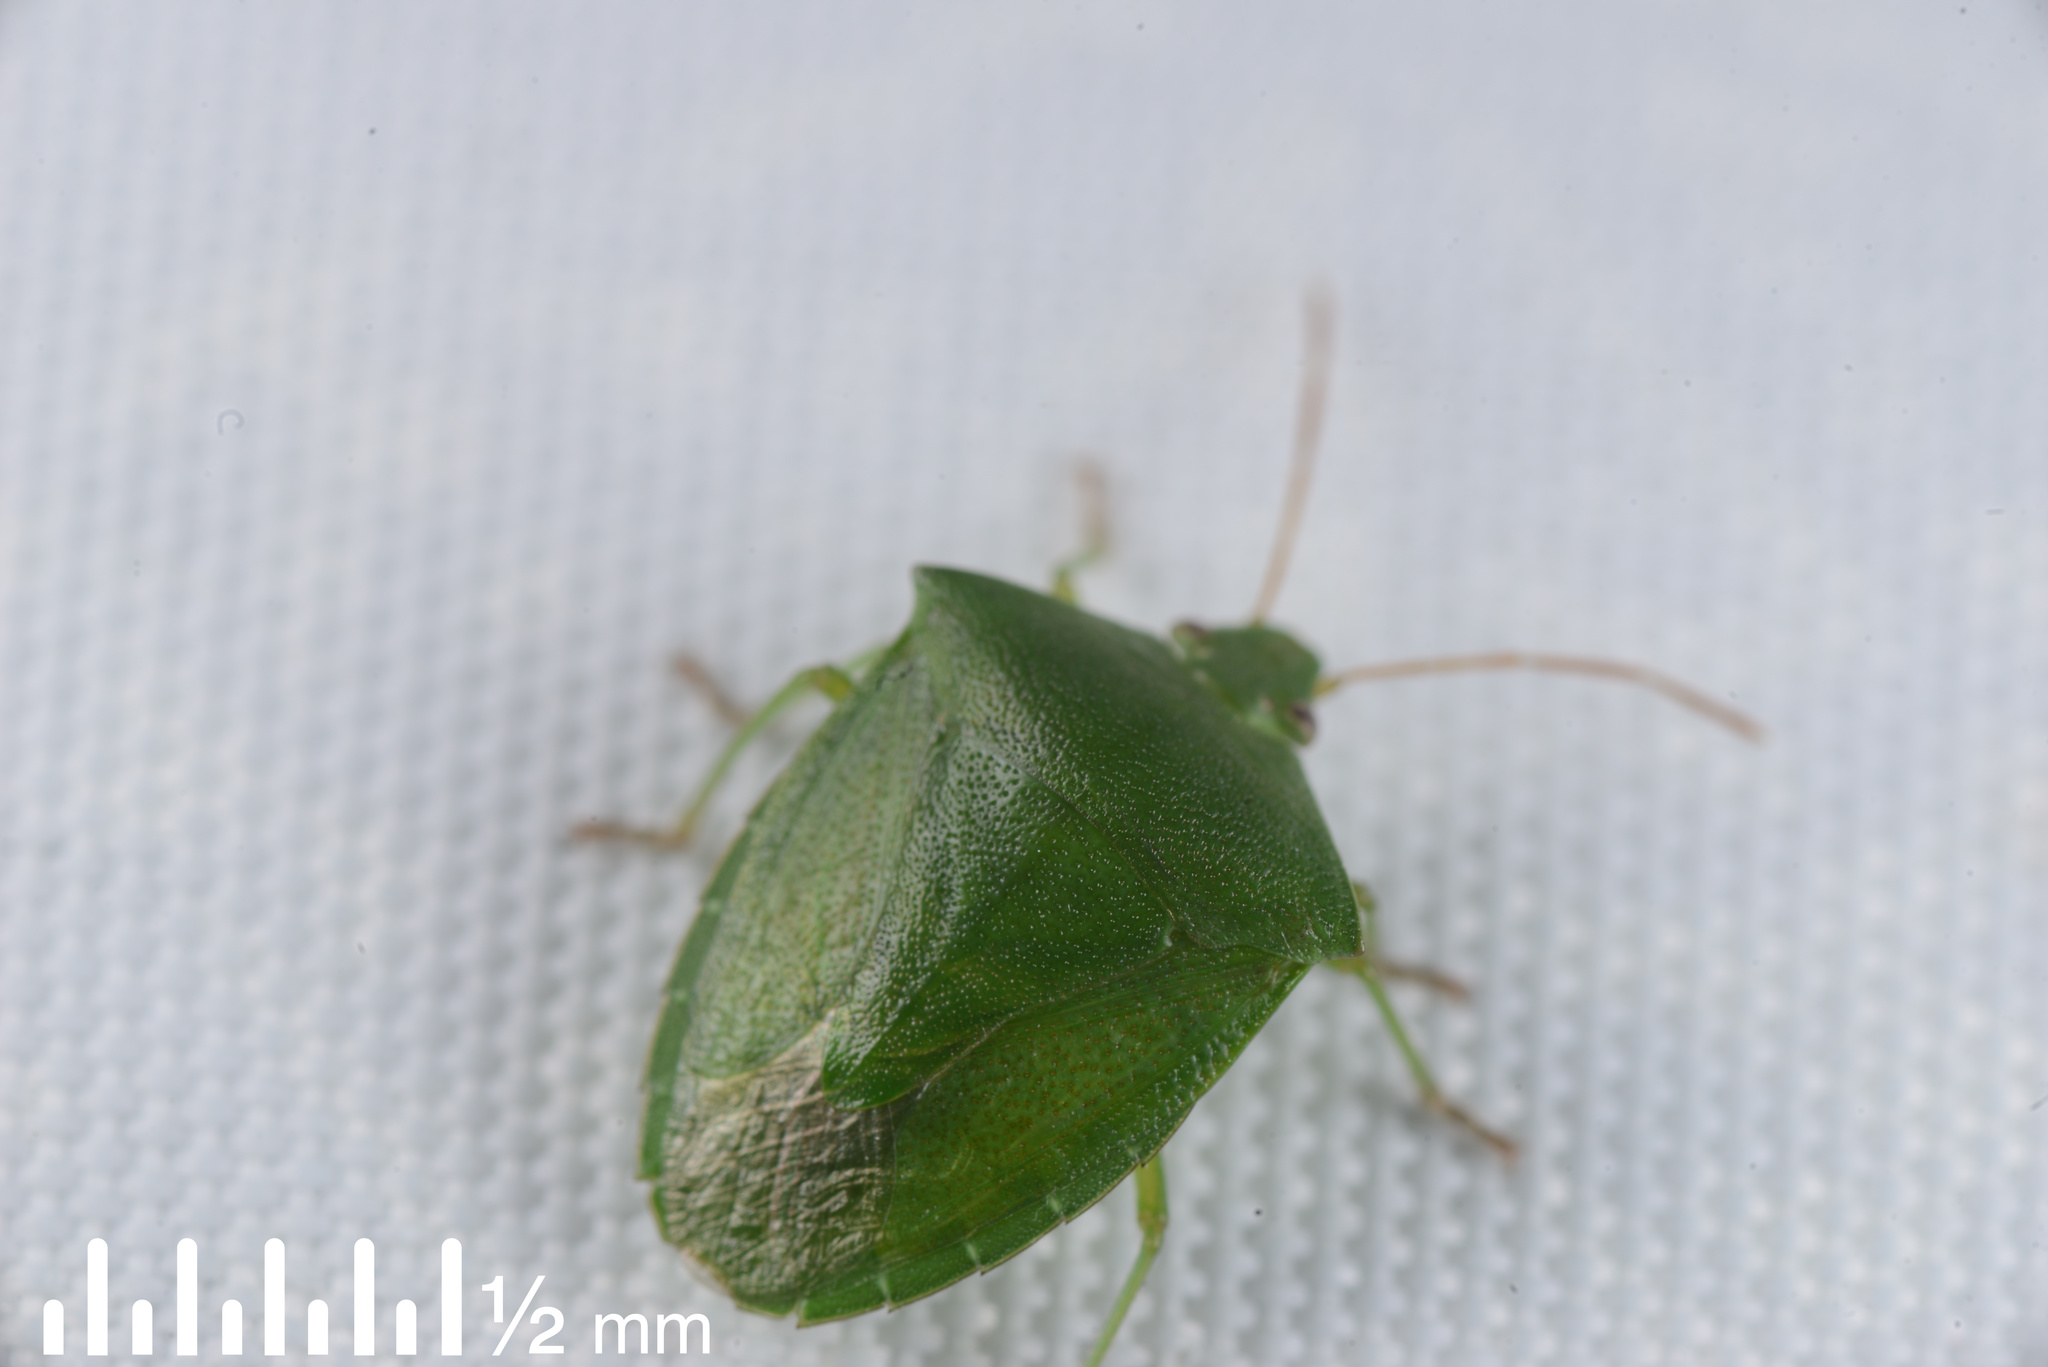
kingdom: Animalia
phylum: Arthropoda
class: Insecta
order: Hemiptera
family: Pentatomidae
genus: Cuspicona
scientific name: Cuspicona simplex
